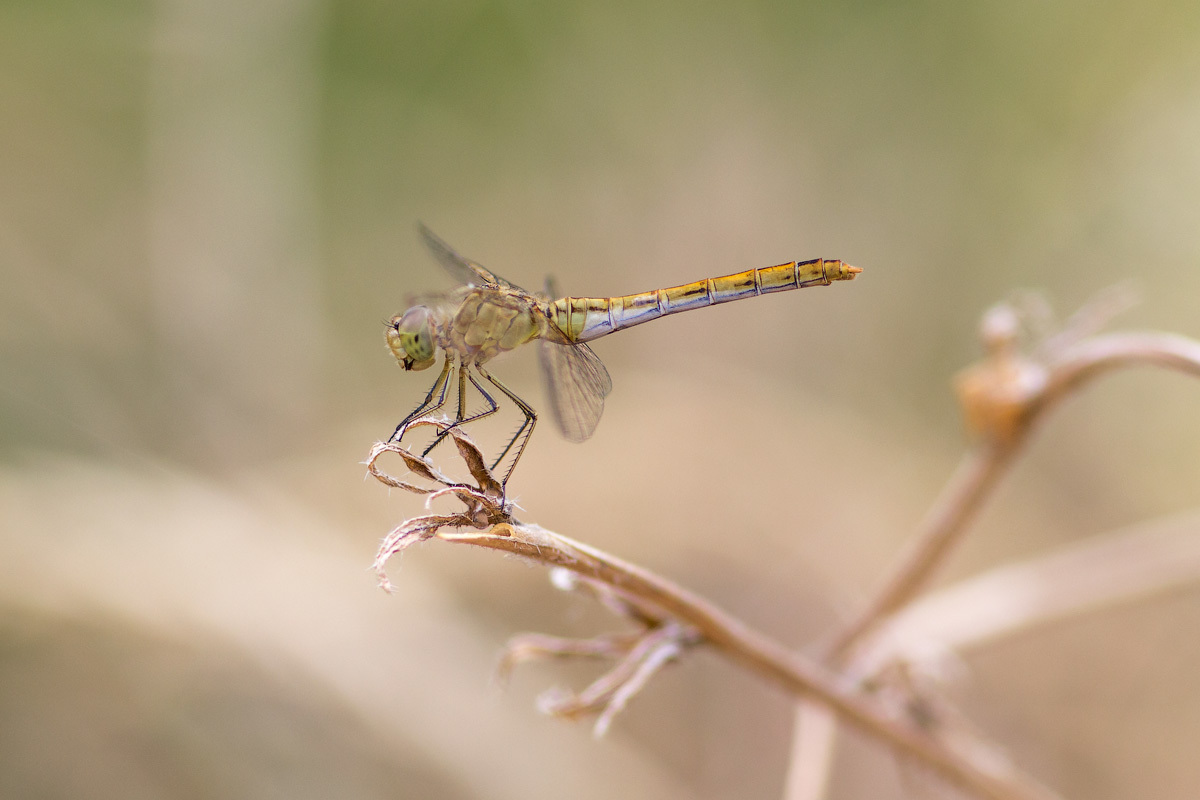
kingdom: Animalia
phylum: Arthropoda
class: Insecta
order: Odonata
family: Libellulidae
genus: Sympetrum
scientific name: Sympetrum meridionale
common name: Southern darter
